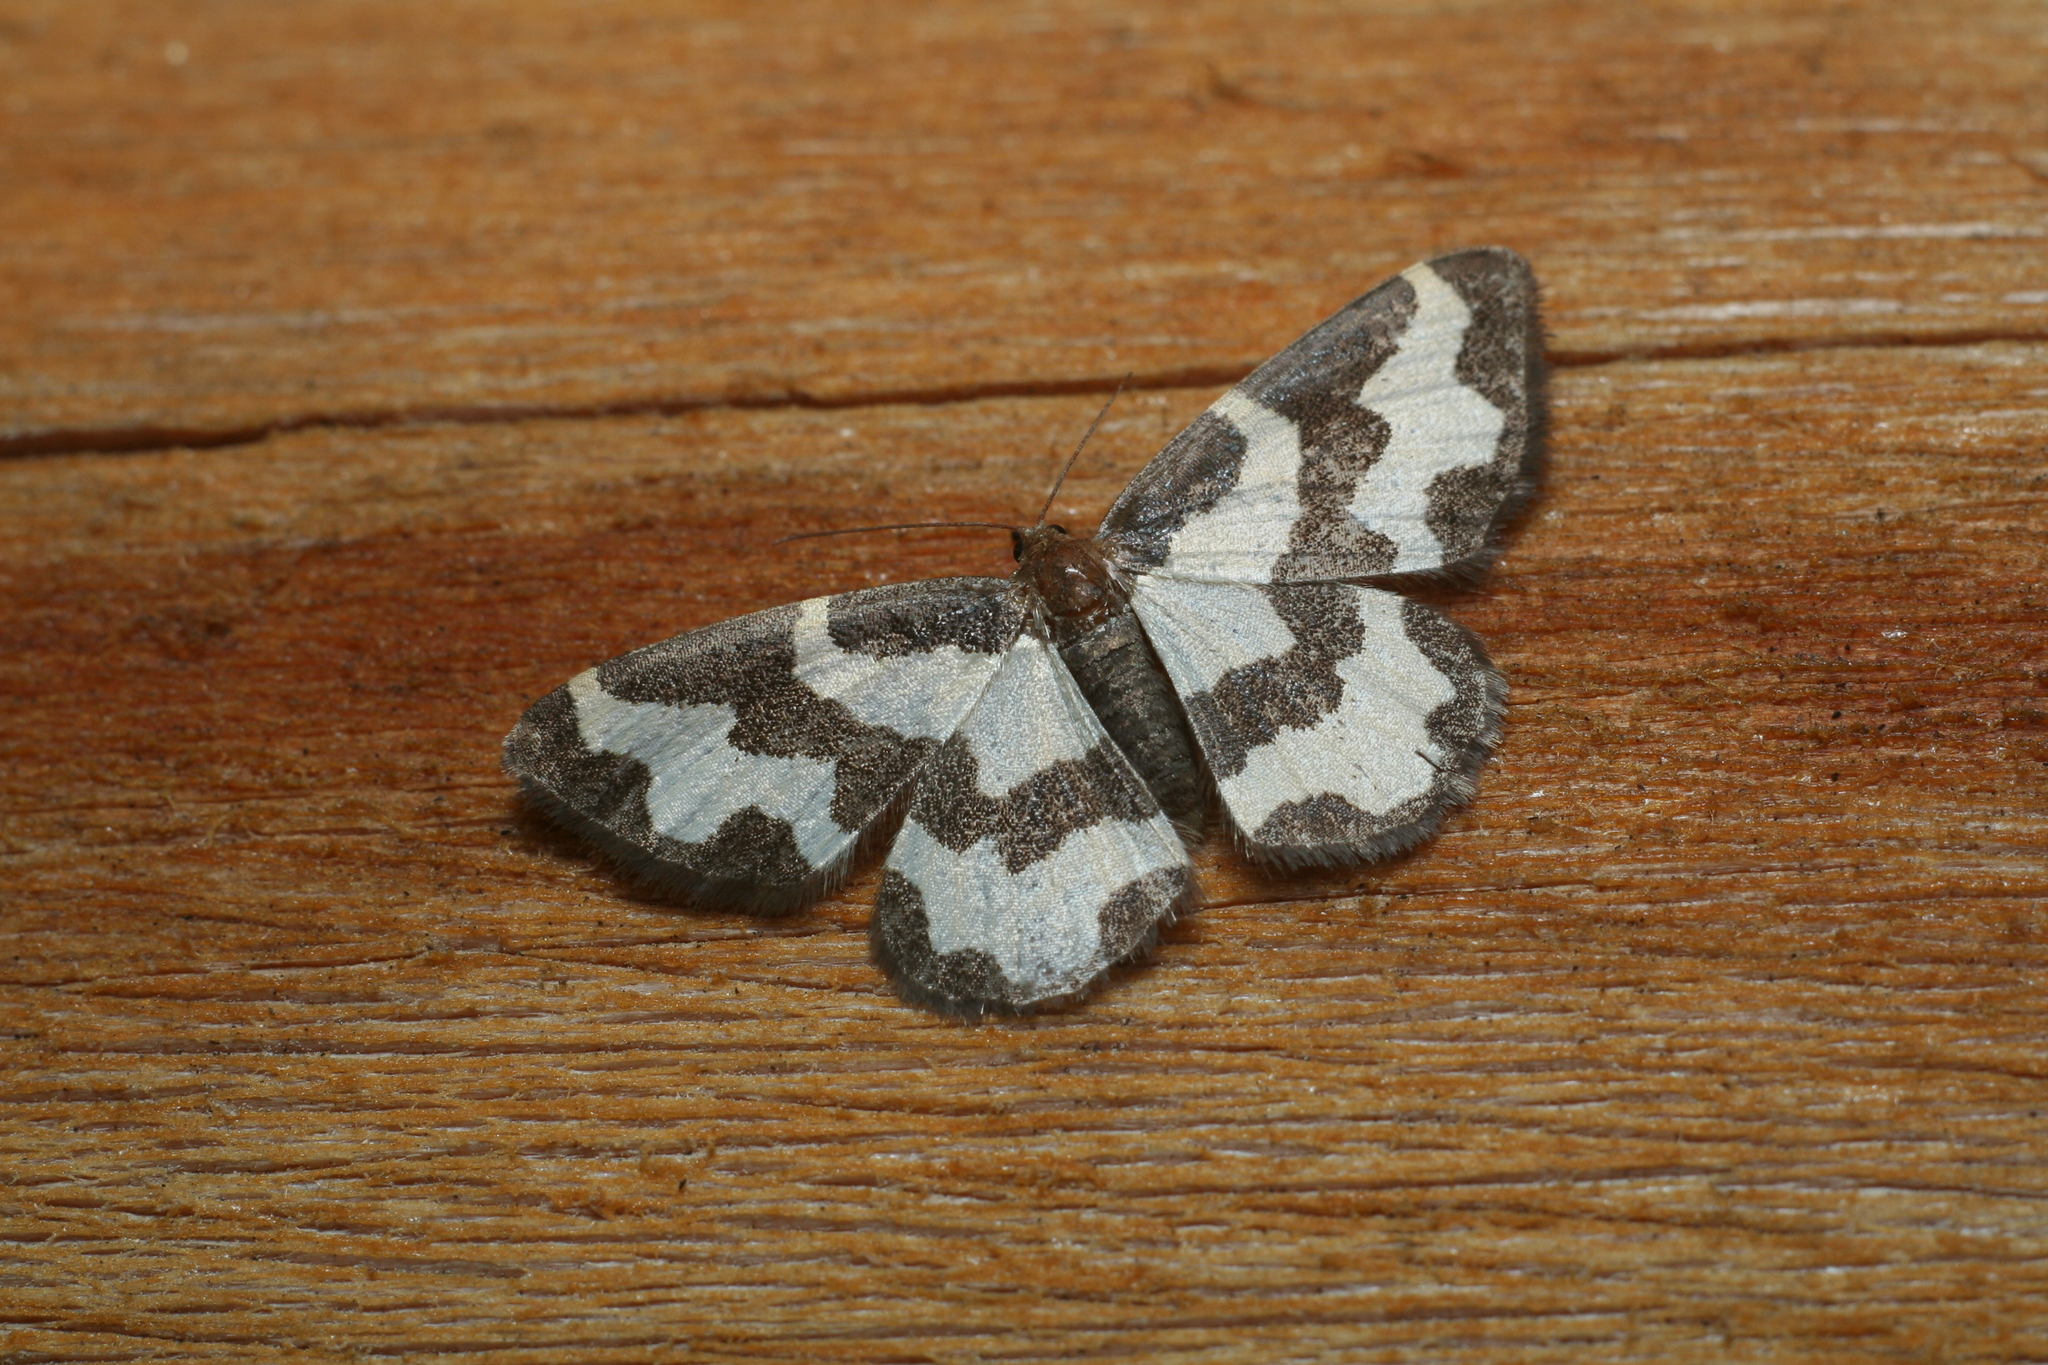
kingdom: Animalia
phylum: Arthropoda
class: Insecta
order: Lepidoptera
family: Geometridae
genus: Lomaspilis
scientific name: Lomaspilis marginata
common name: Clouded border
